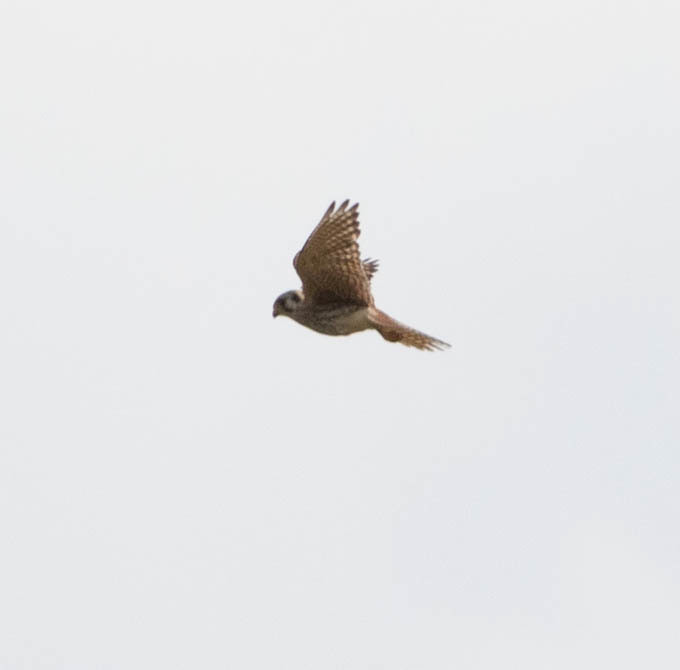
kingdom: Animalia
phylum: Chordata
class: Aves
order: Falconiformes
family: Falconidae
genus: Falco
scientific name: Falco sparverius
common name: American kestrel
